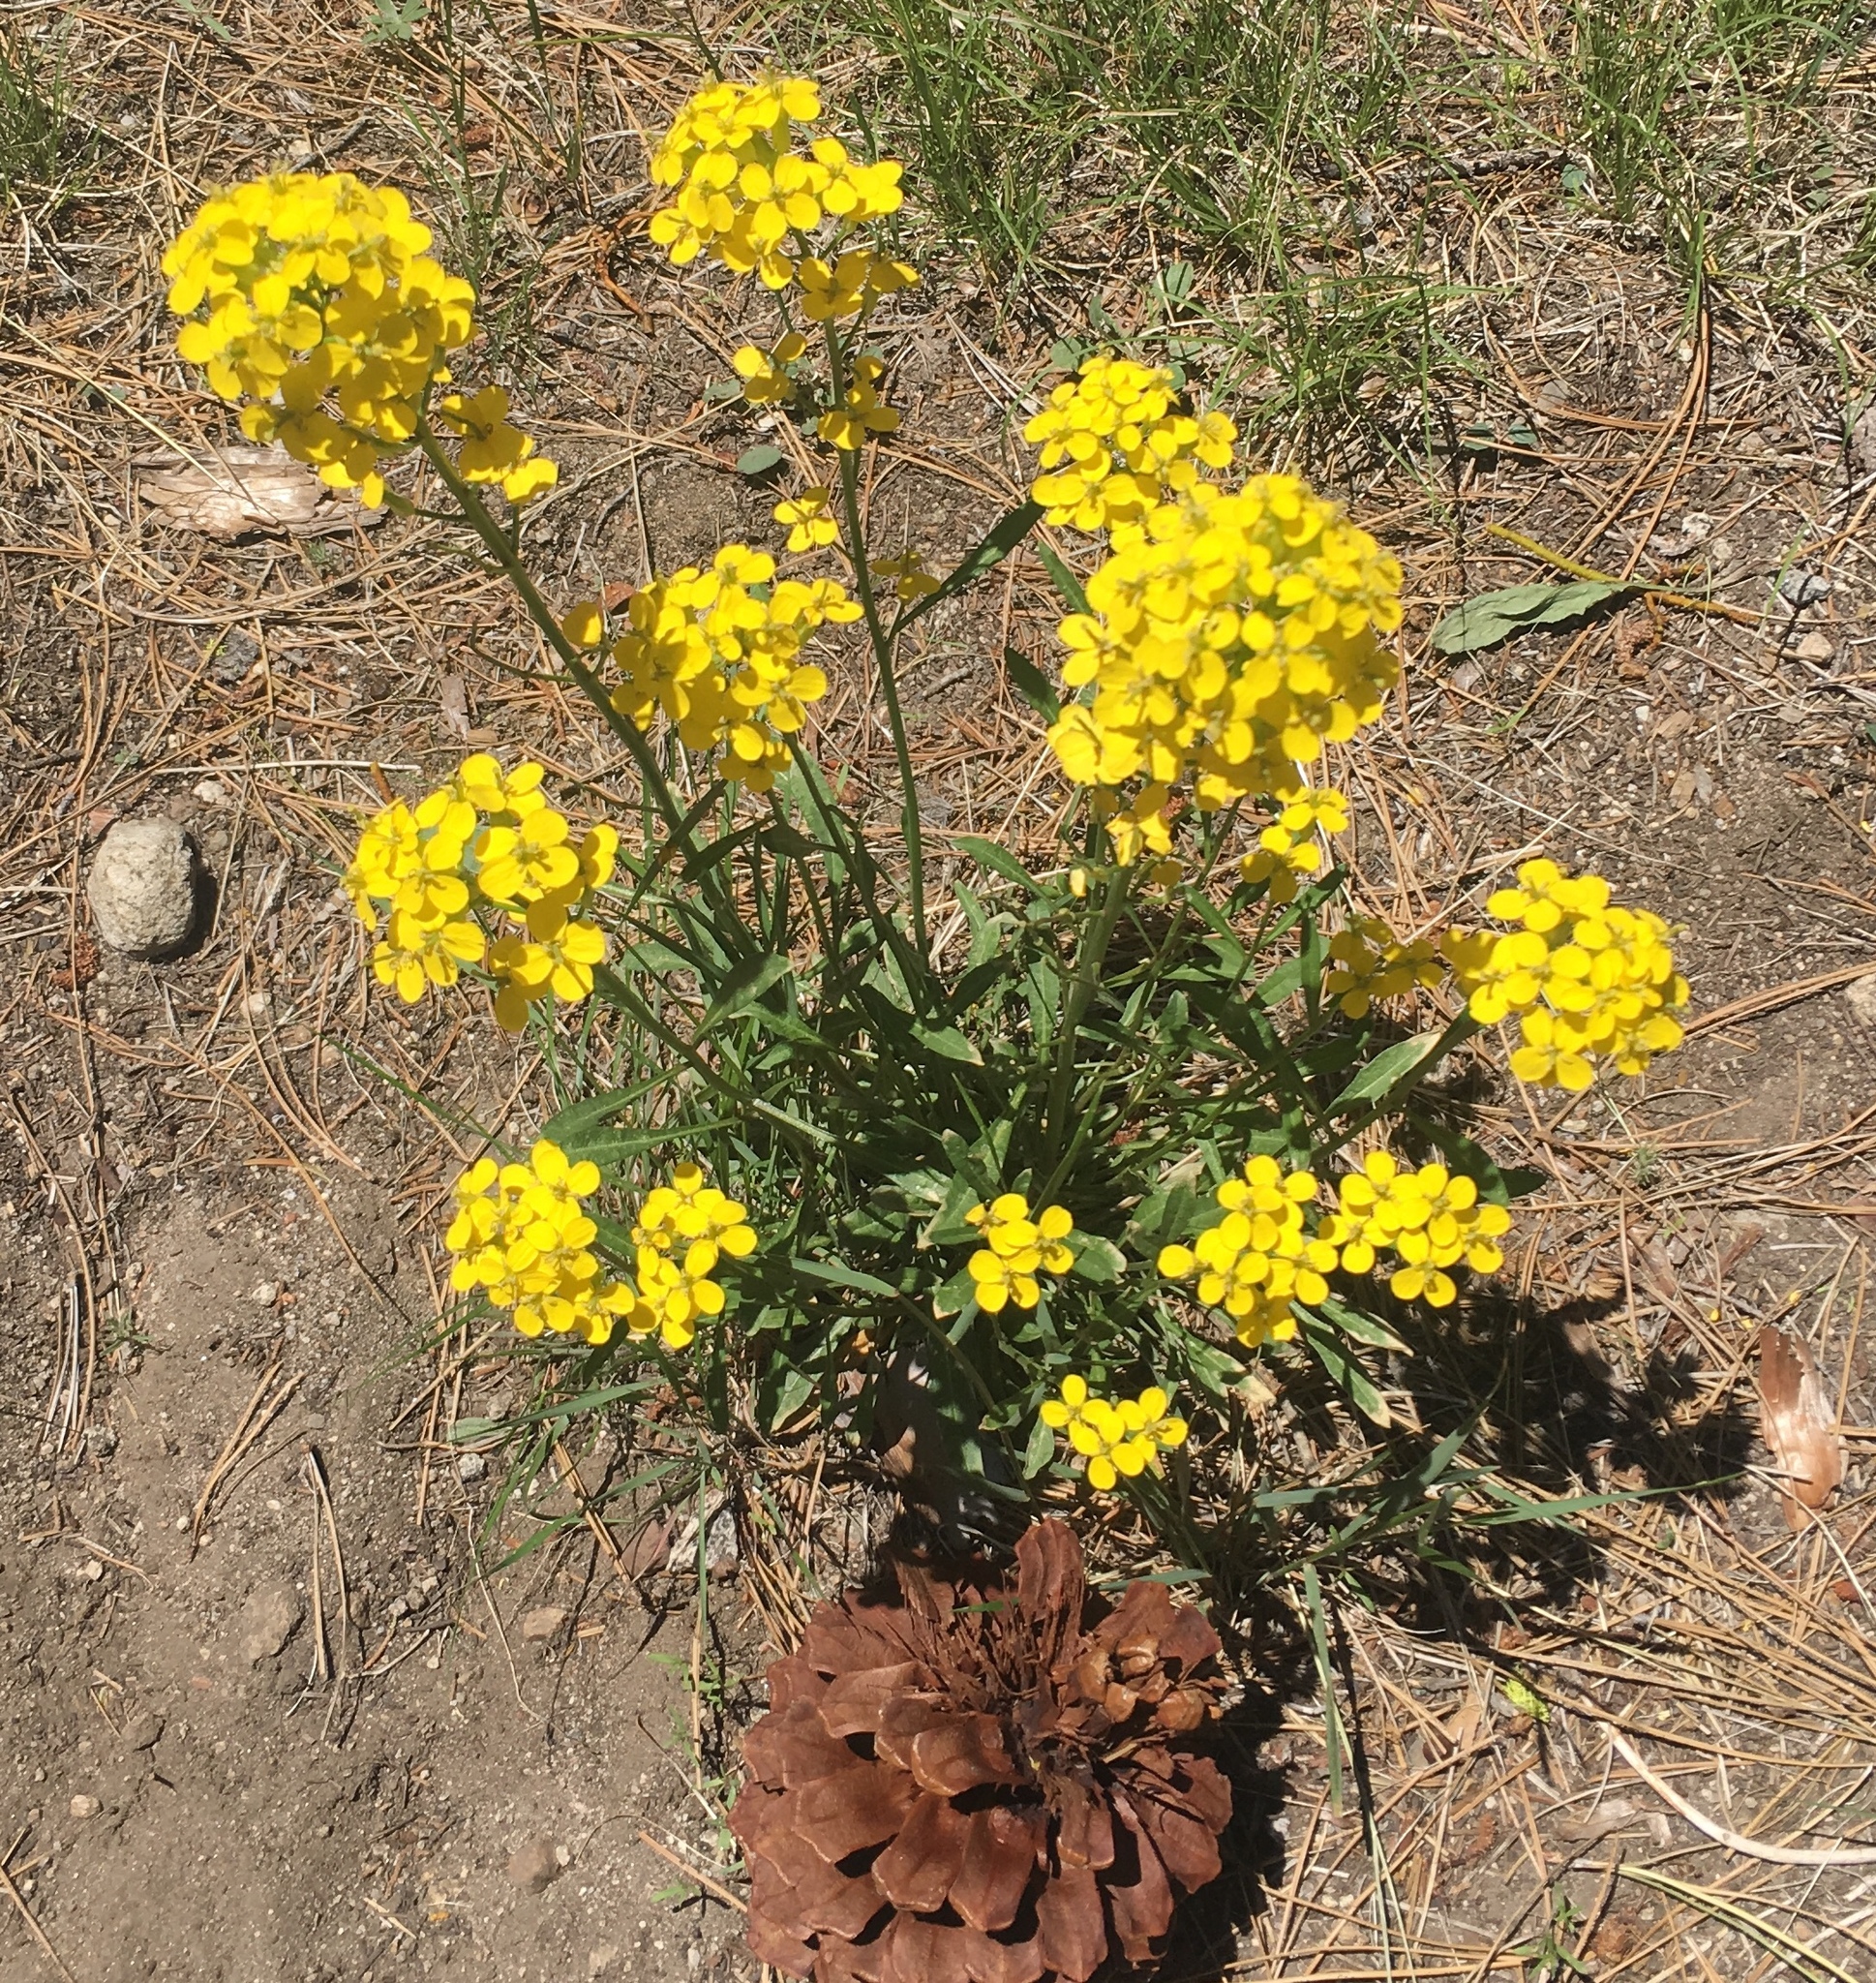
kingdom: Plantae
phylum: Tracheophyta
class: Magnoliopsida
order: Brassicales
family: Brassicaceae
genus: Erysimum
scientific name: Erysimum capitatum
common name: Western wallflower
